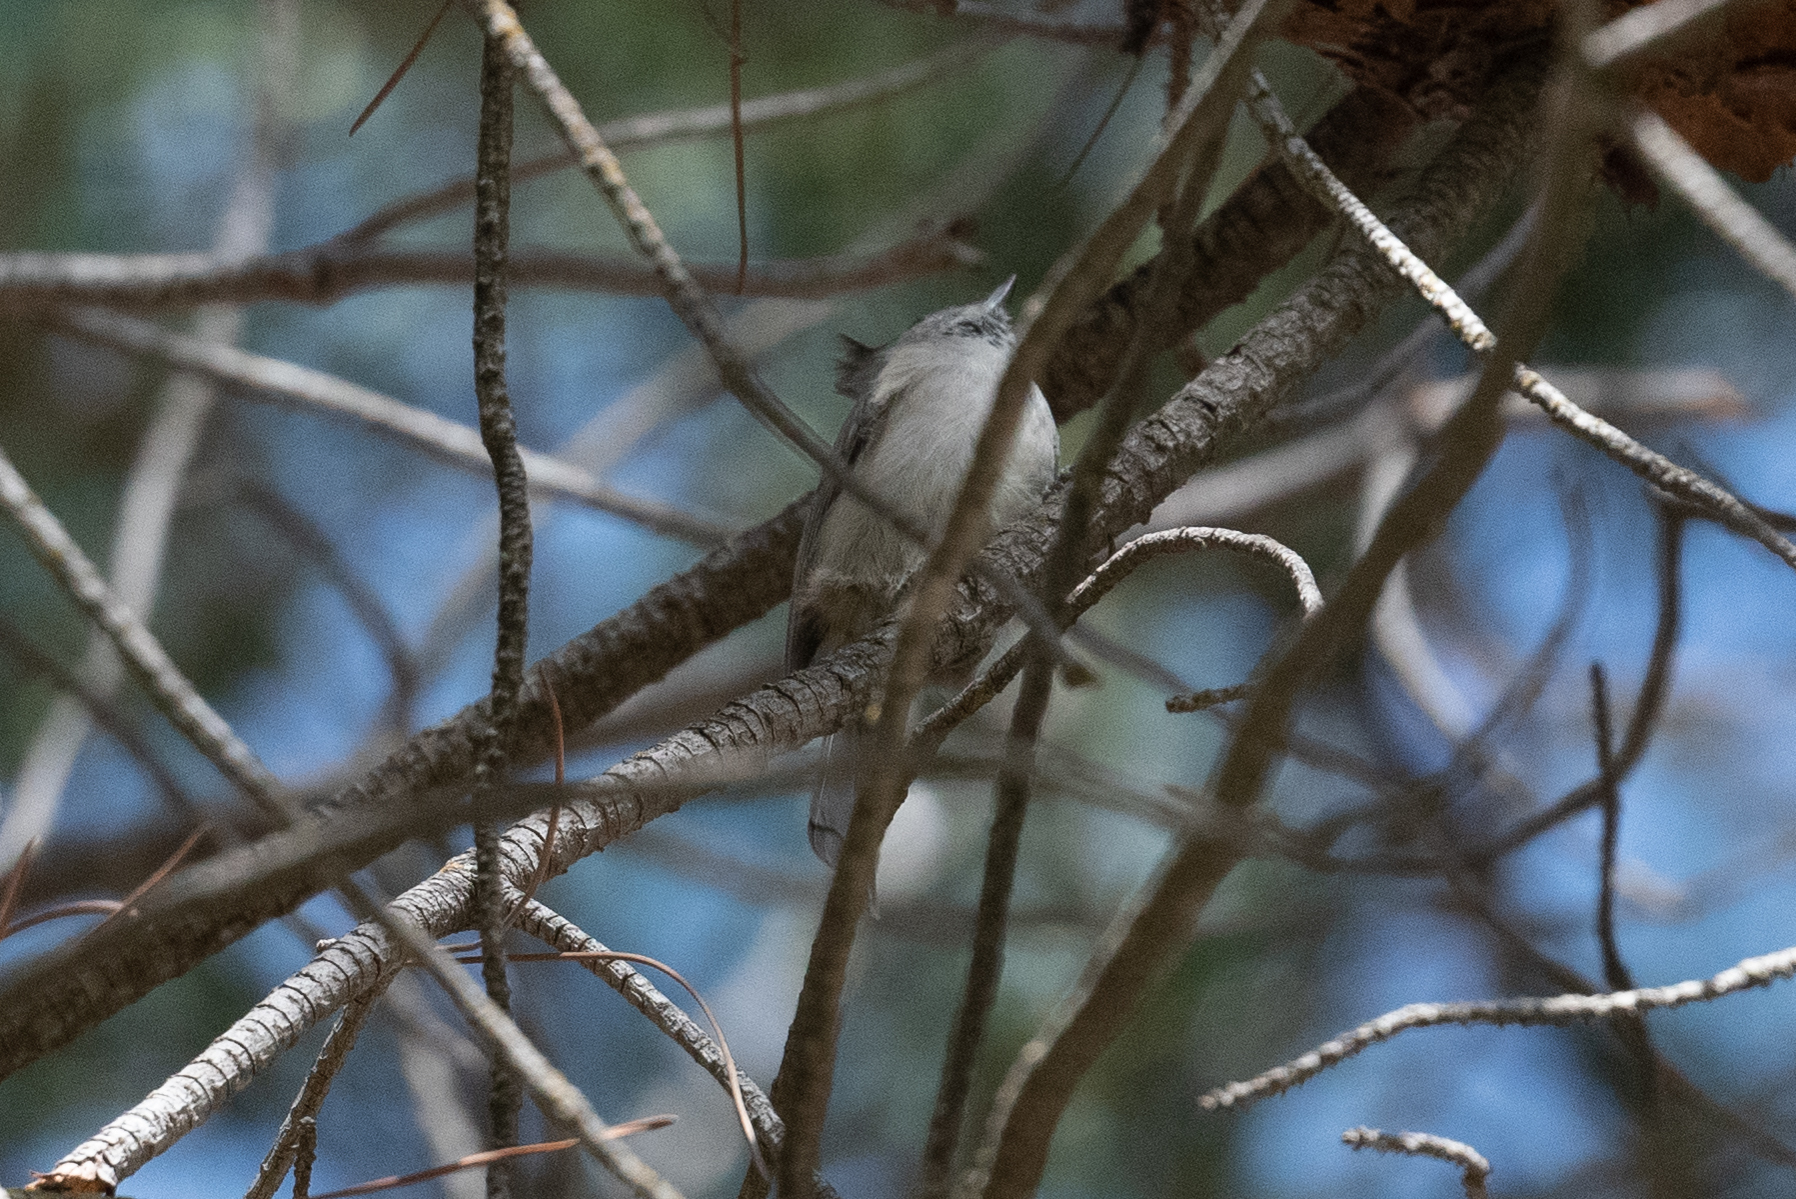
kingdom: Animalia
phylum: Chordata
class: Aves
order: Passeriformes
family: Paridae
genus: Baeolophus
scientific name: Baeolophus inornatus
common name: Oak titmouse
